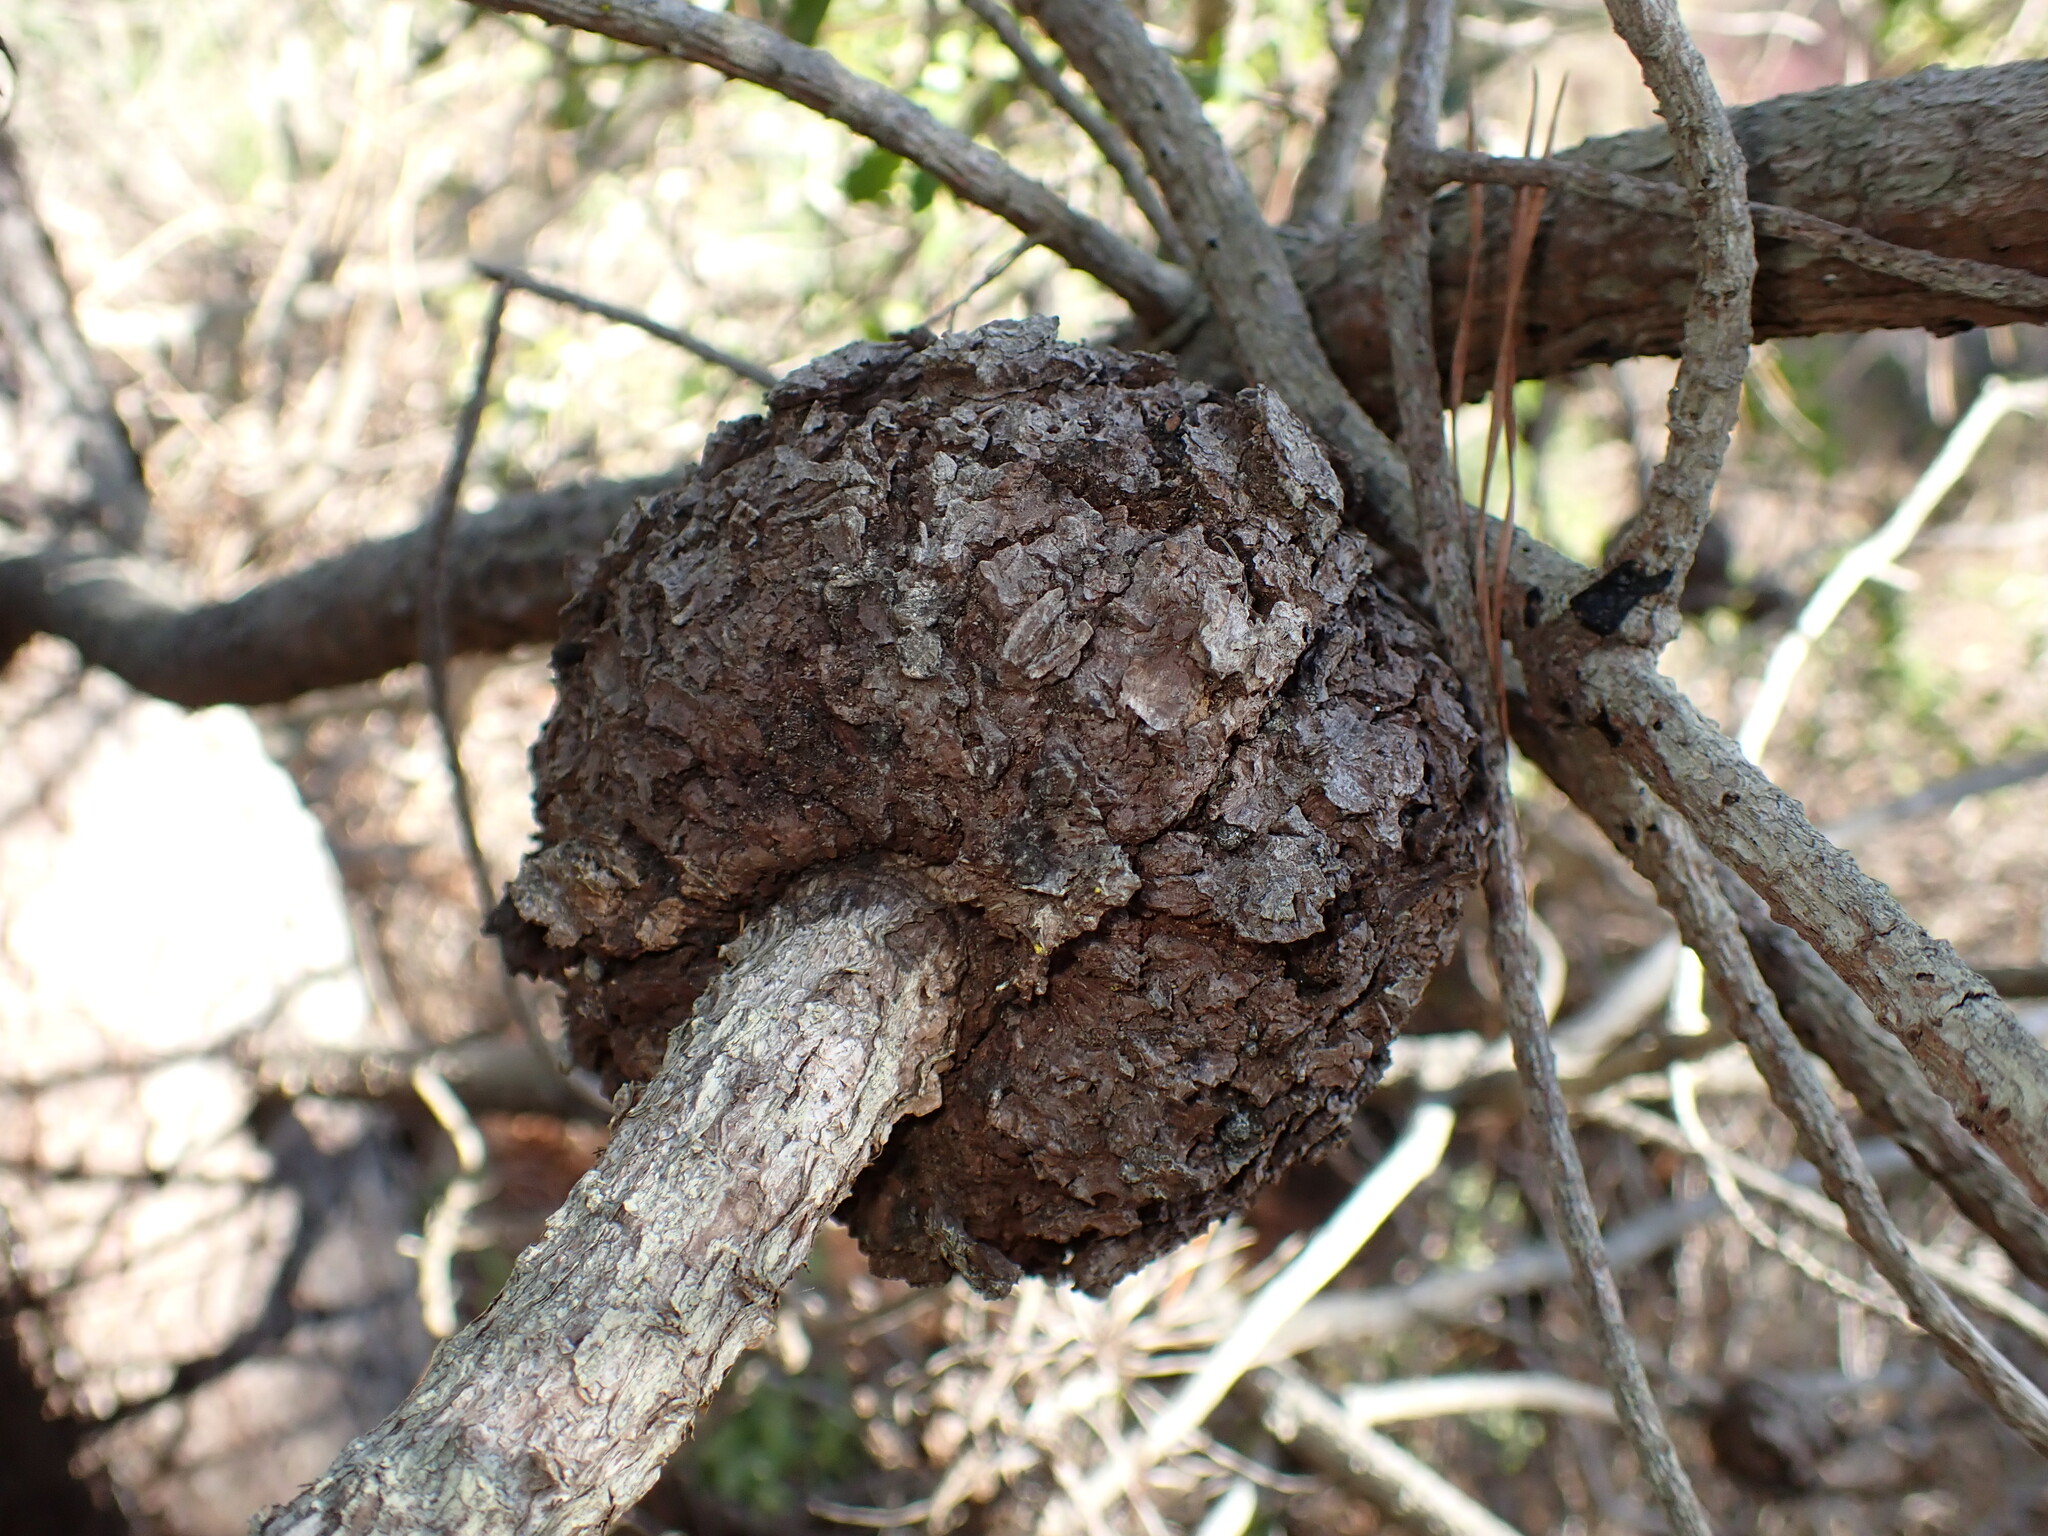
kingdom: Fungi
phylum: Basidiomycota
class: Pucciniomycetes
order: Pucciniales
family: Cronartiaceae
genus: Cronartium
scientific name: Cronartium harknessii
